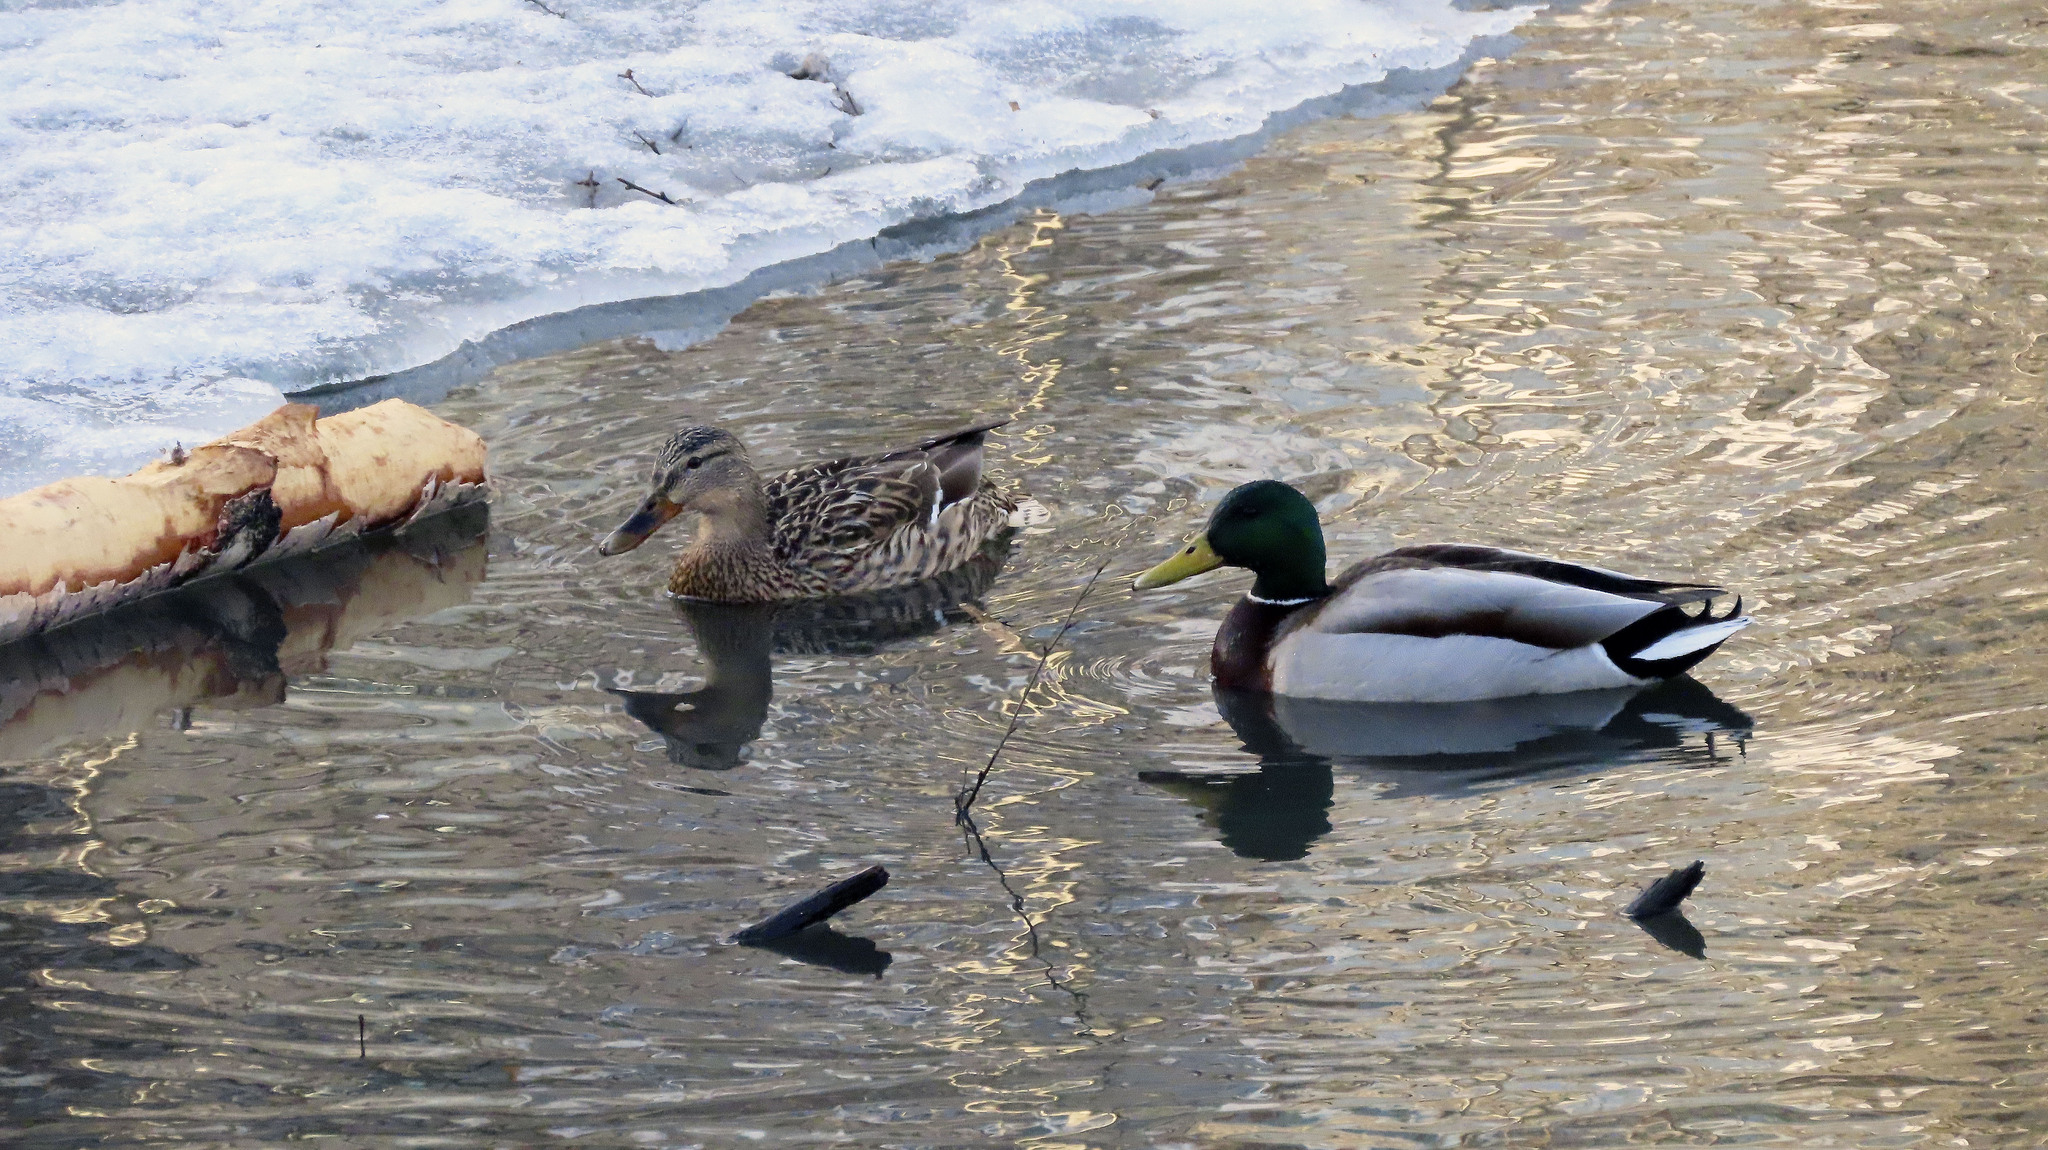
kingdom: Animalia
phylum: Chordata
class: Aves
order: Anseriformes
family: Anatidae
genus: Anas
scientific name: Anas platyrhynchos
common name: Mallard
